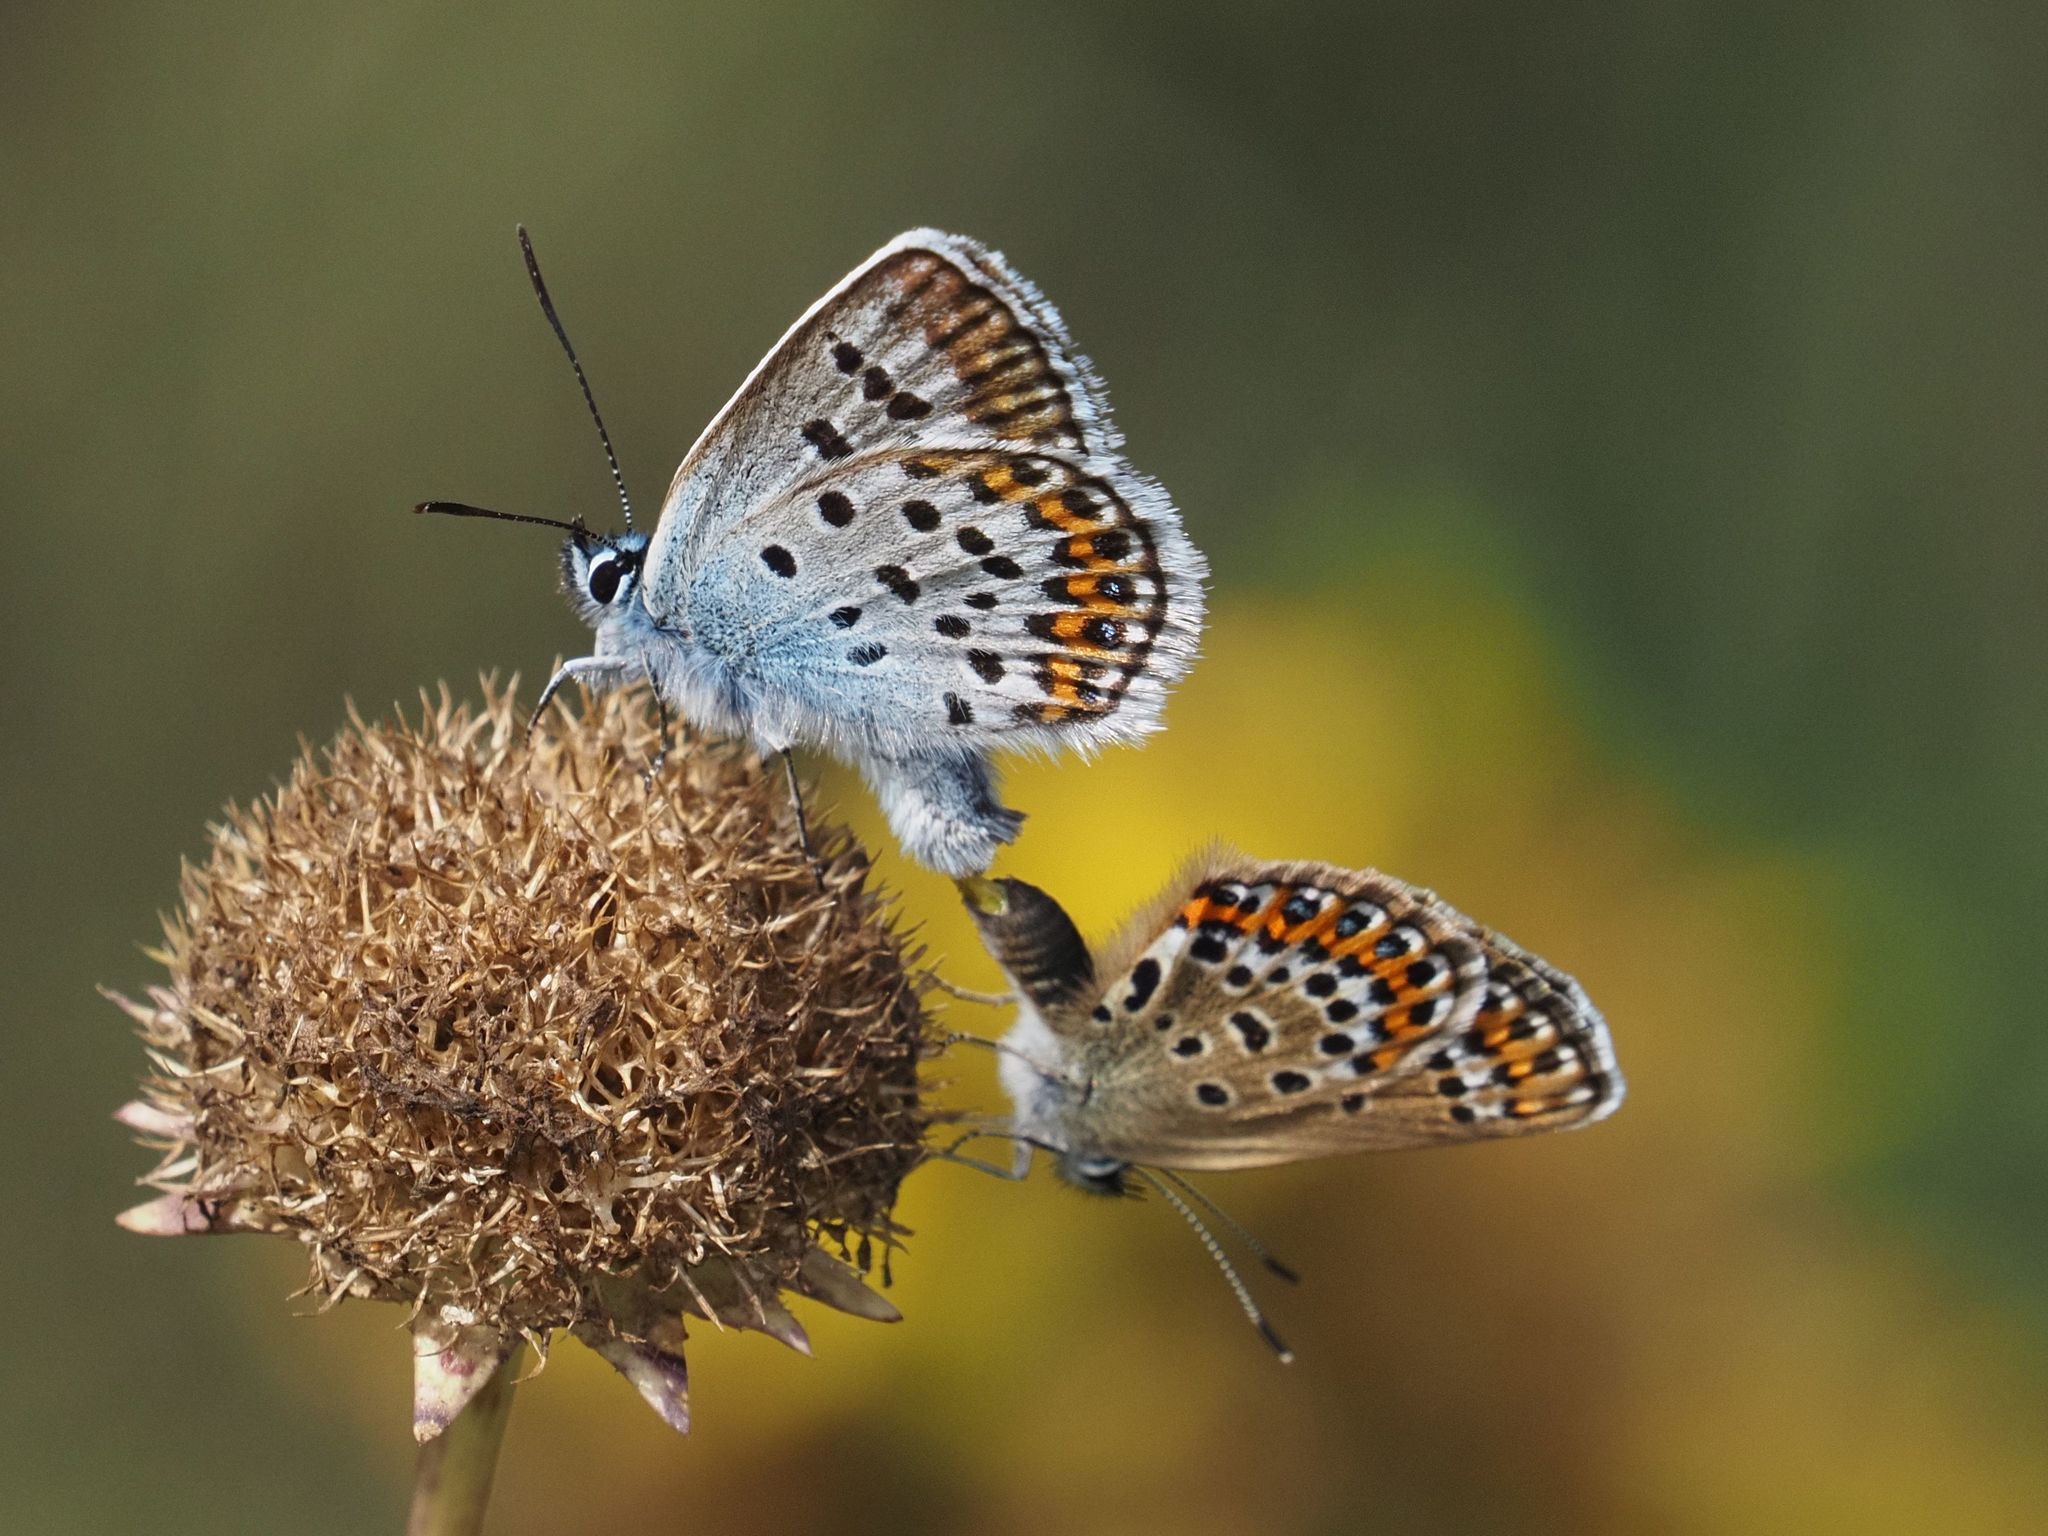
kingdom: Animalia
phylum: Arthropoda
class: Insecta
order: Lepidoptera
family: Lycaenidae
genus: Plebejus
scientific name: Plebejus argus
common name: Silver-studded blue
